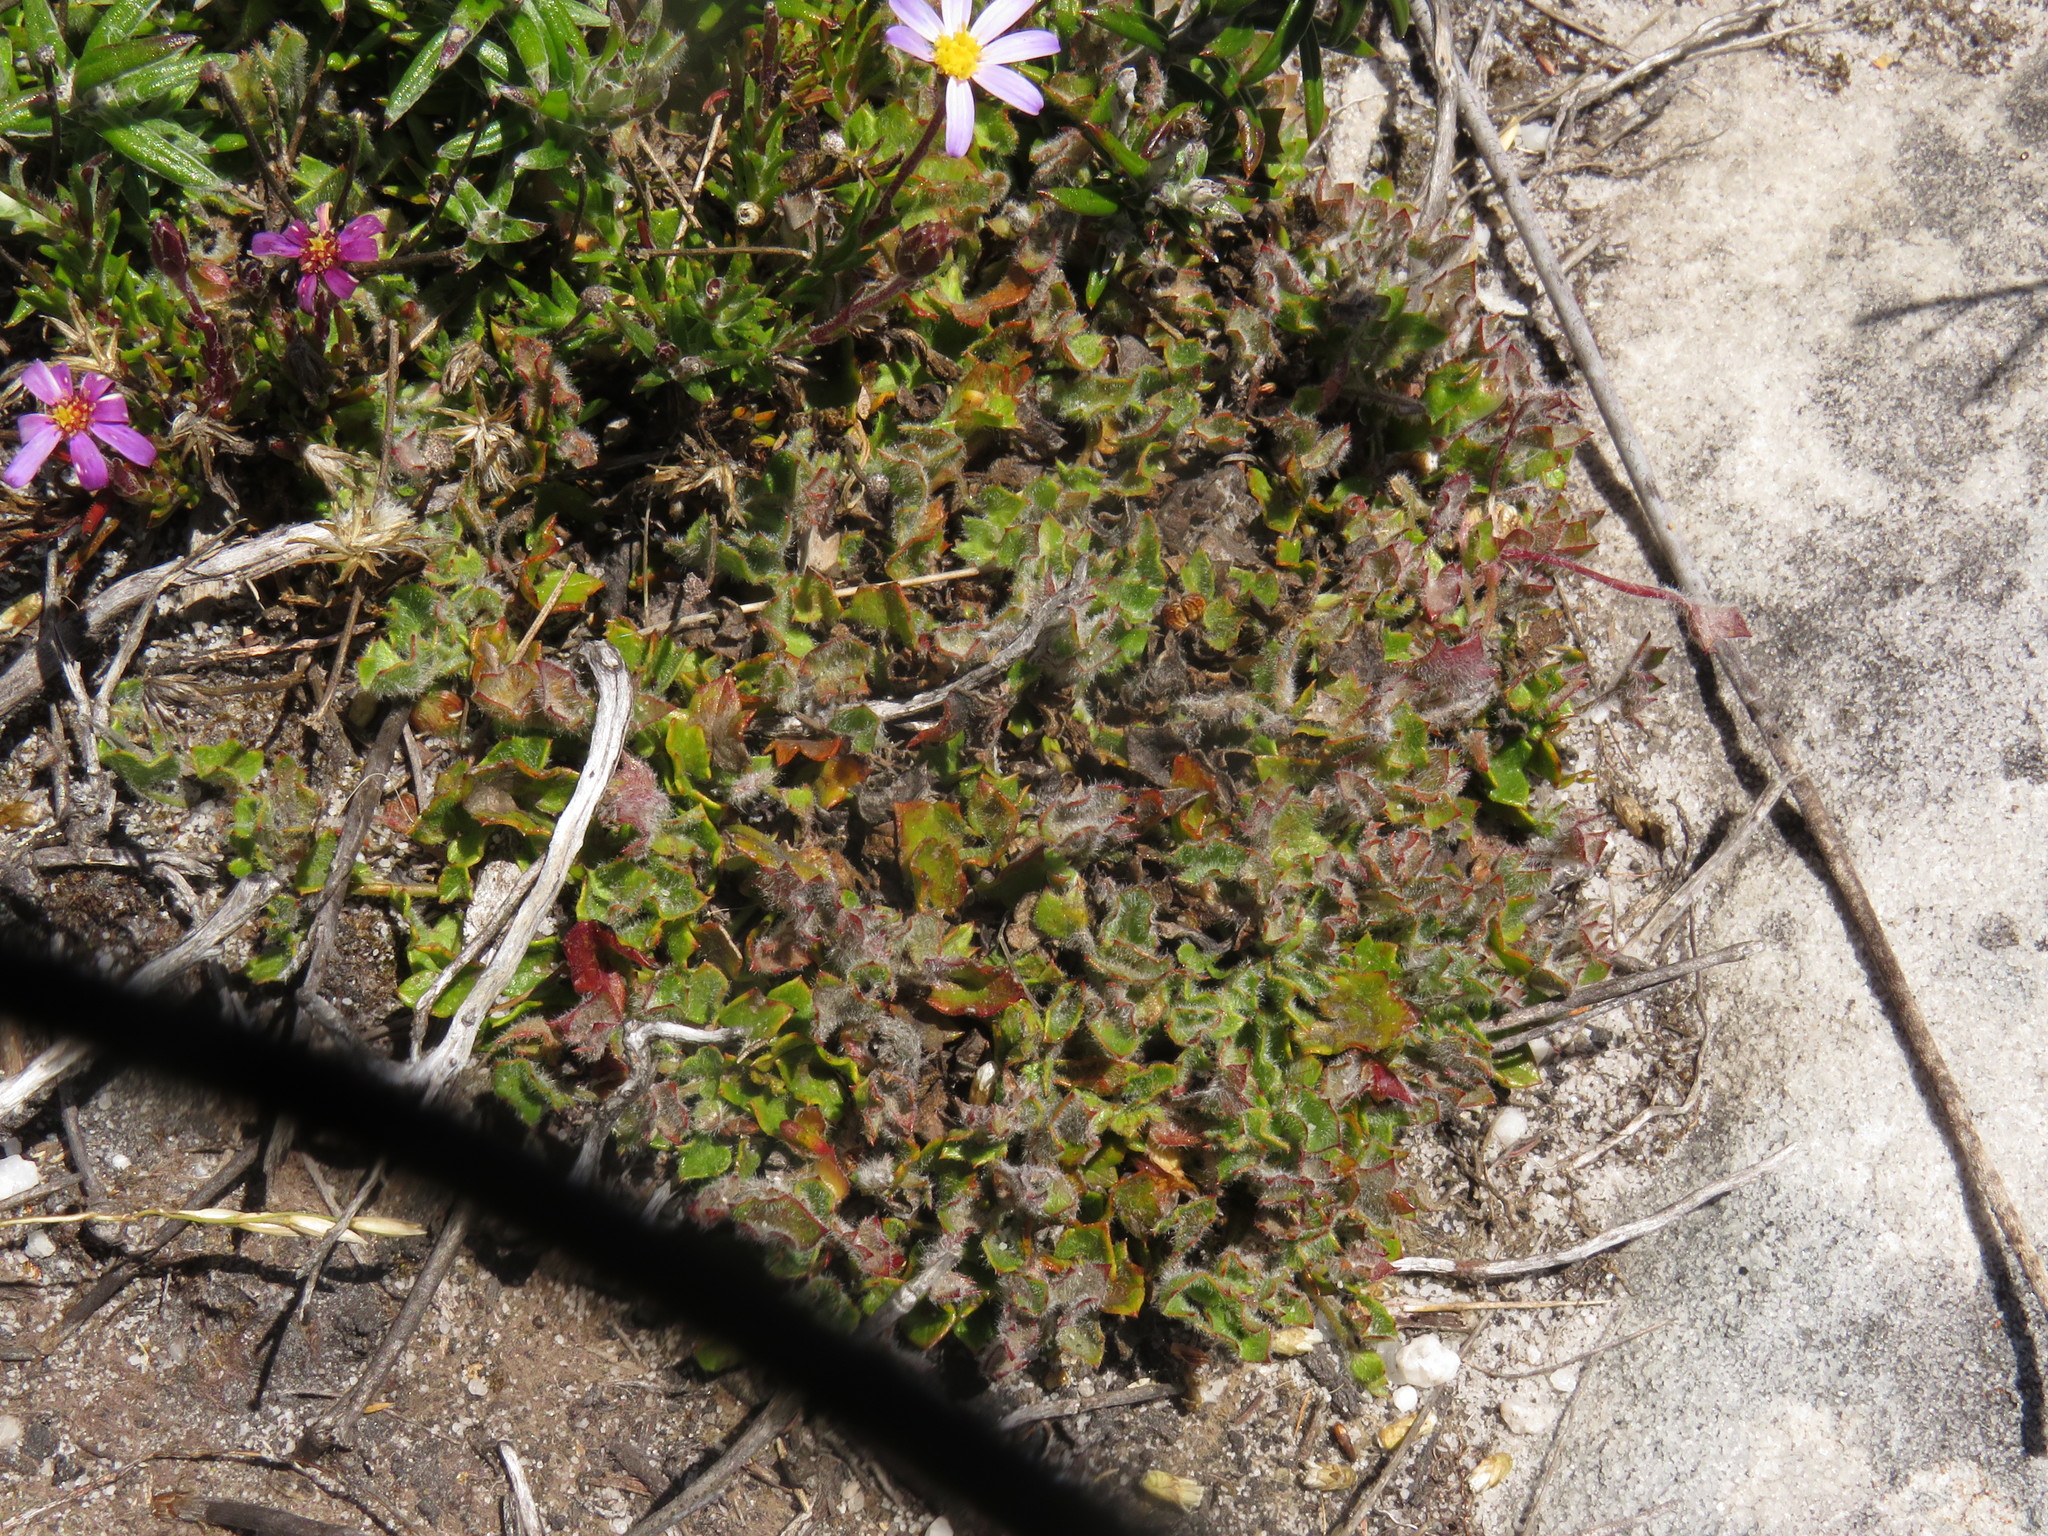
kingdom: Plantae
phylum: Tracheophyta
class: Magnoliopsida
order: Apiales
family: Apiaceae
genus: Centella
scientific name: Centella macroda
